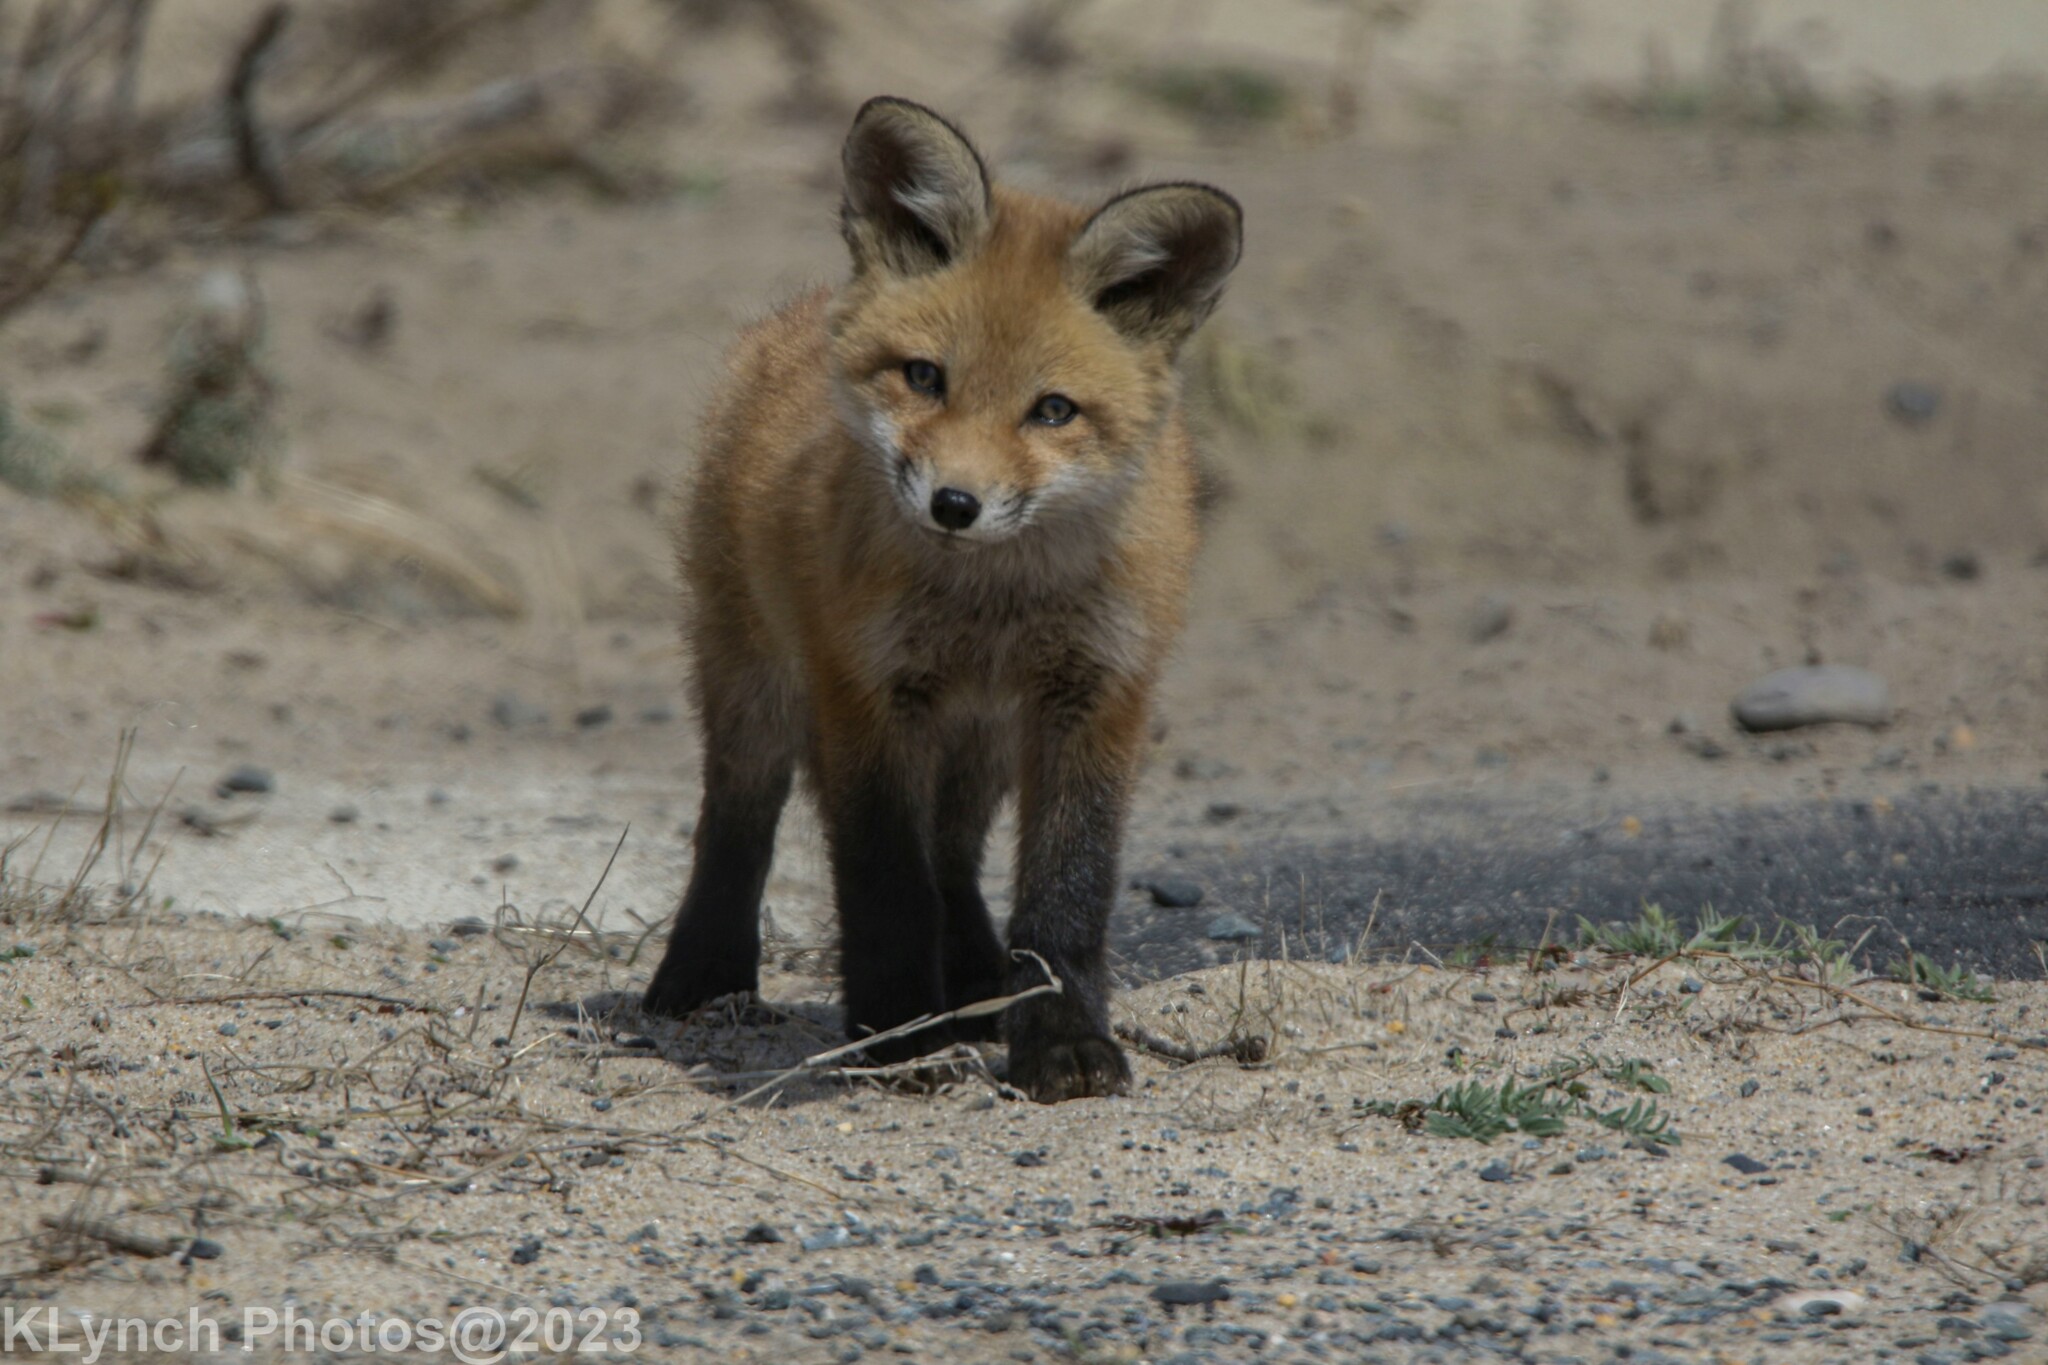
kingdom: Animalia
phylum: Chordata
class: Mammalia
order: Carnivora
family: Canidae
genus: Vulpes
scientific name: Vulpes vulpes
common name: Red fox
